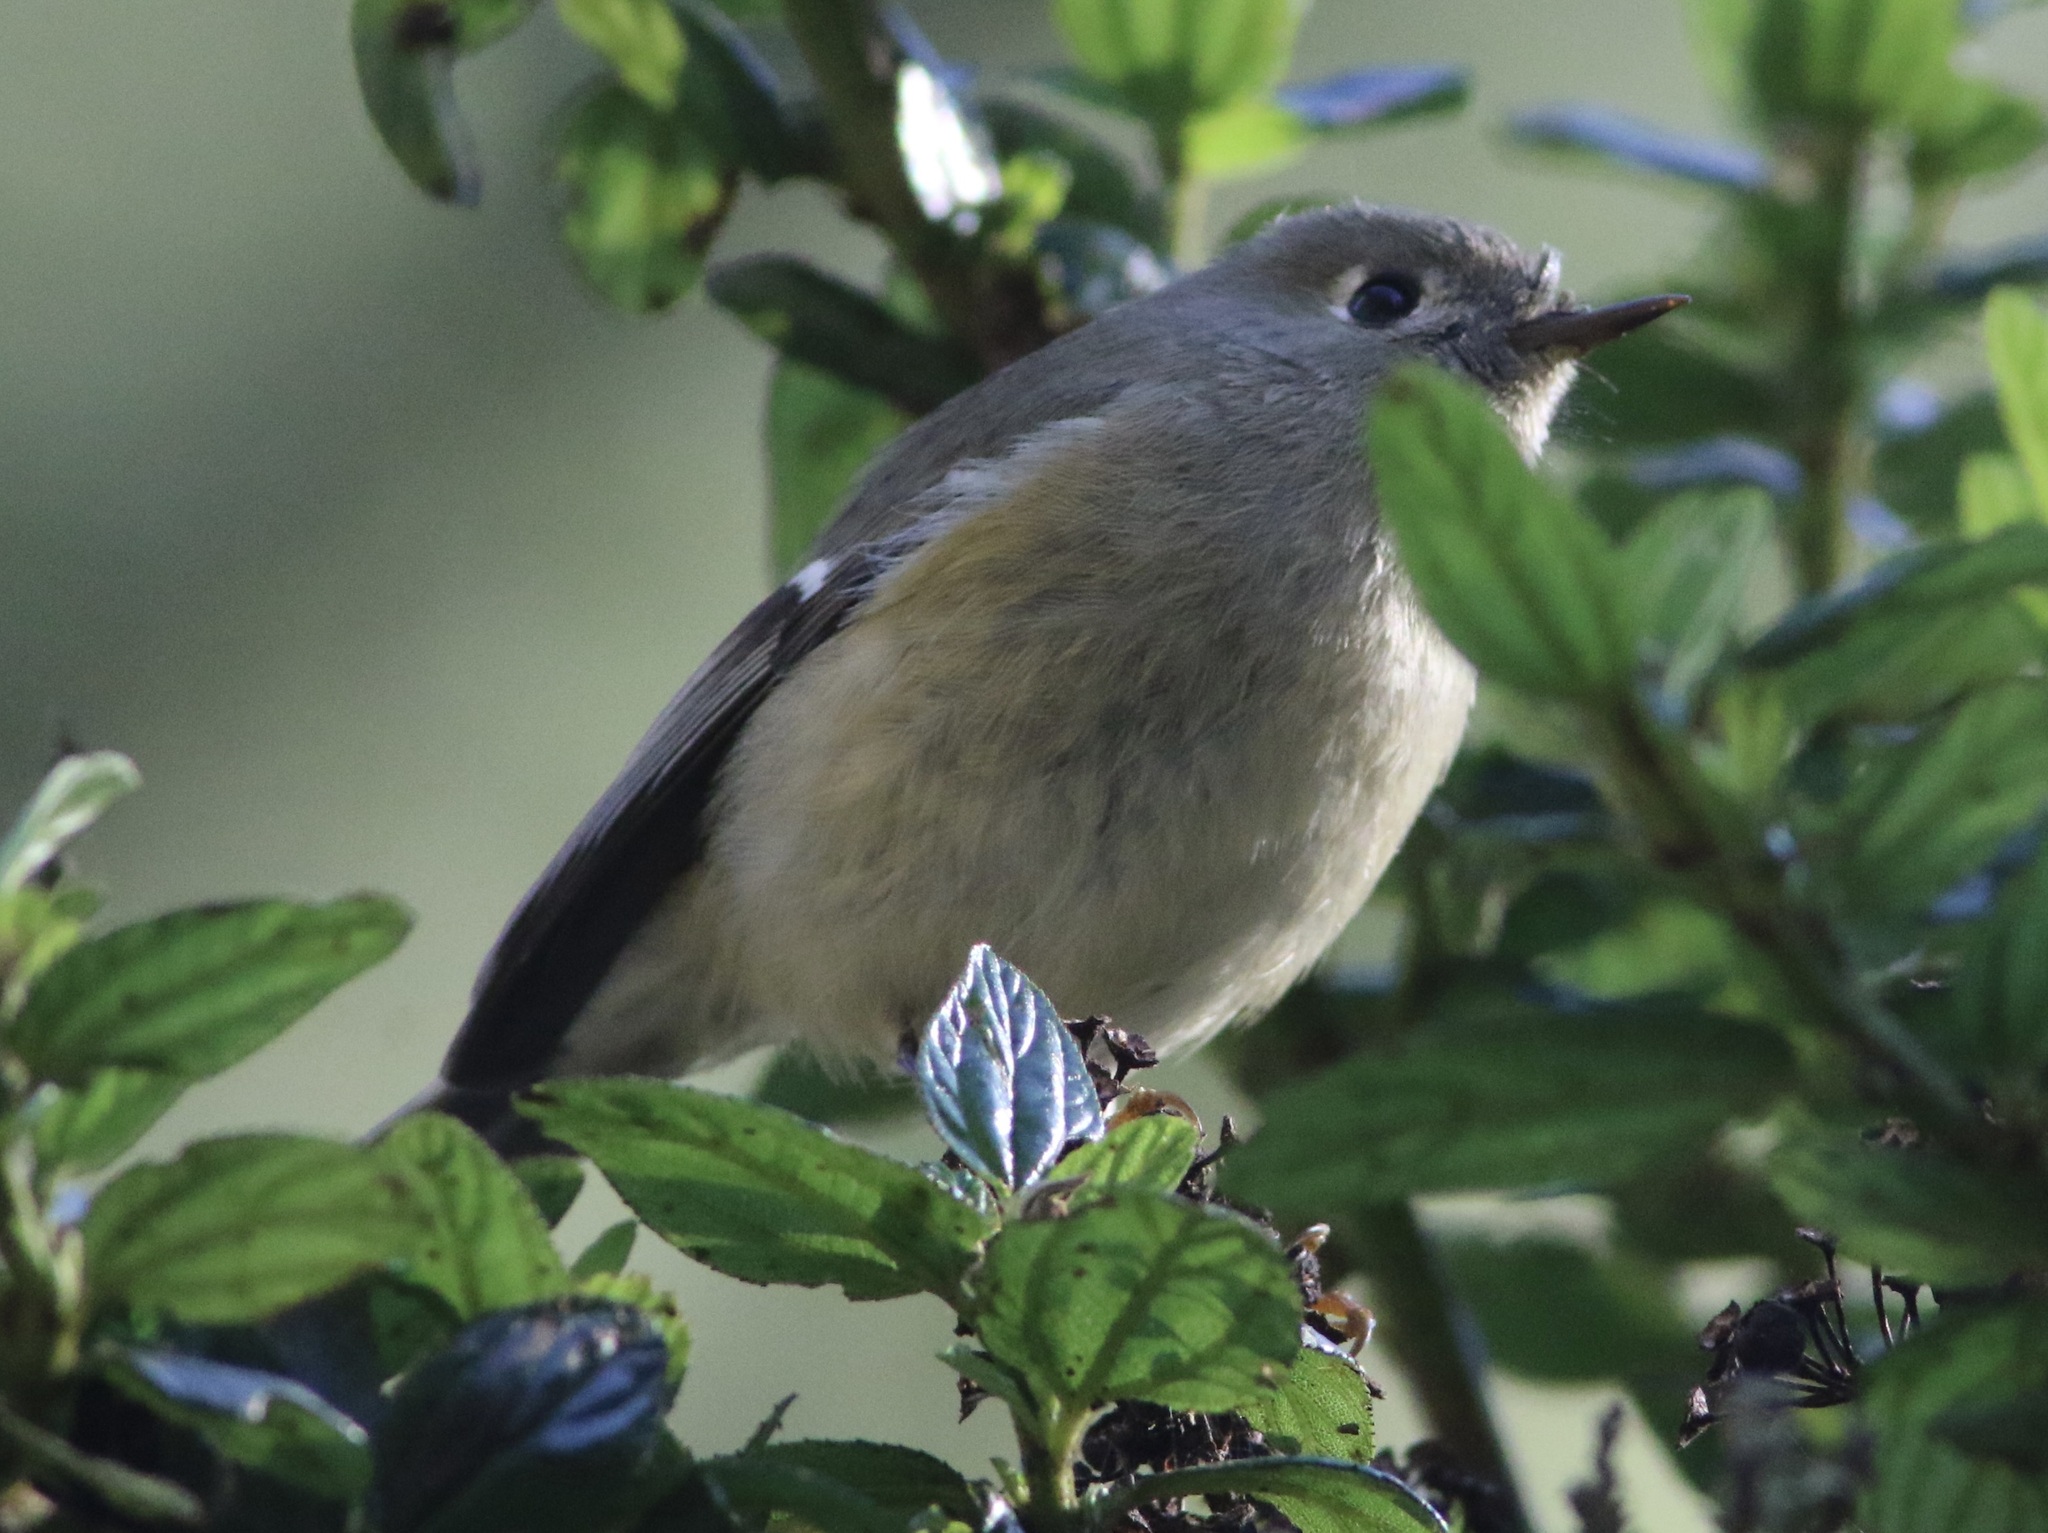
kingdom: Animalia
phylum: Chordata
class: Aves
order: Passeriformes
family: Regulidae
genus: Regulus
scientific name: Regulus calendula
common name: Ruby-crowned kinglet
